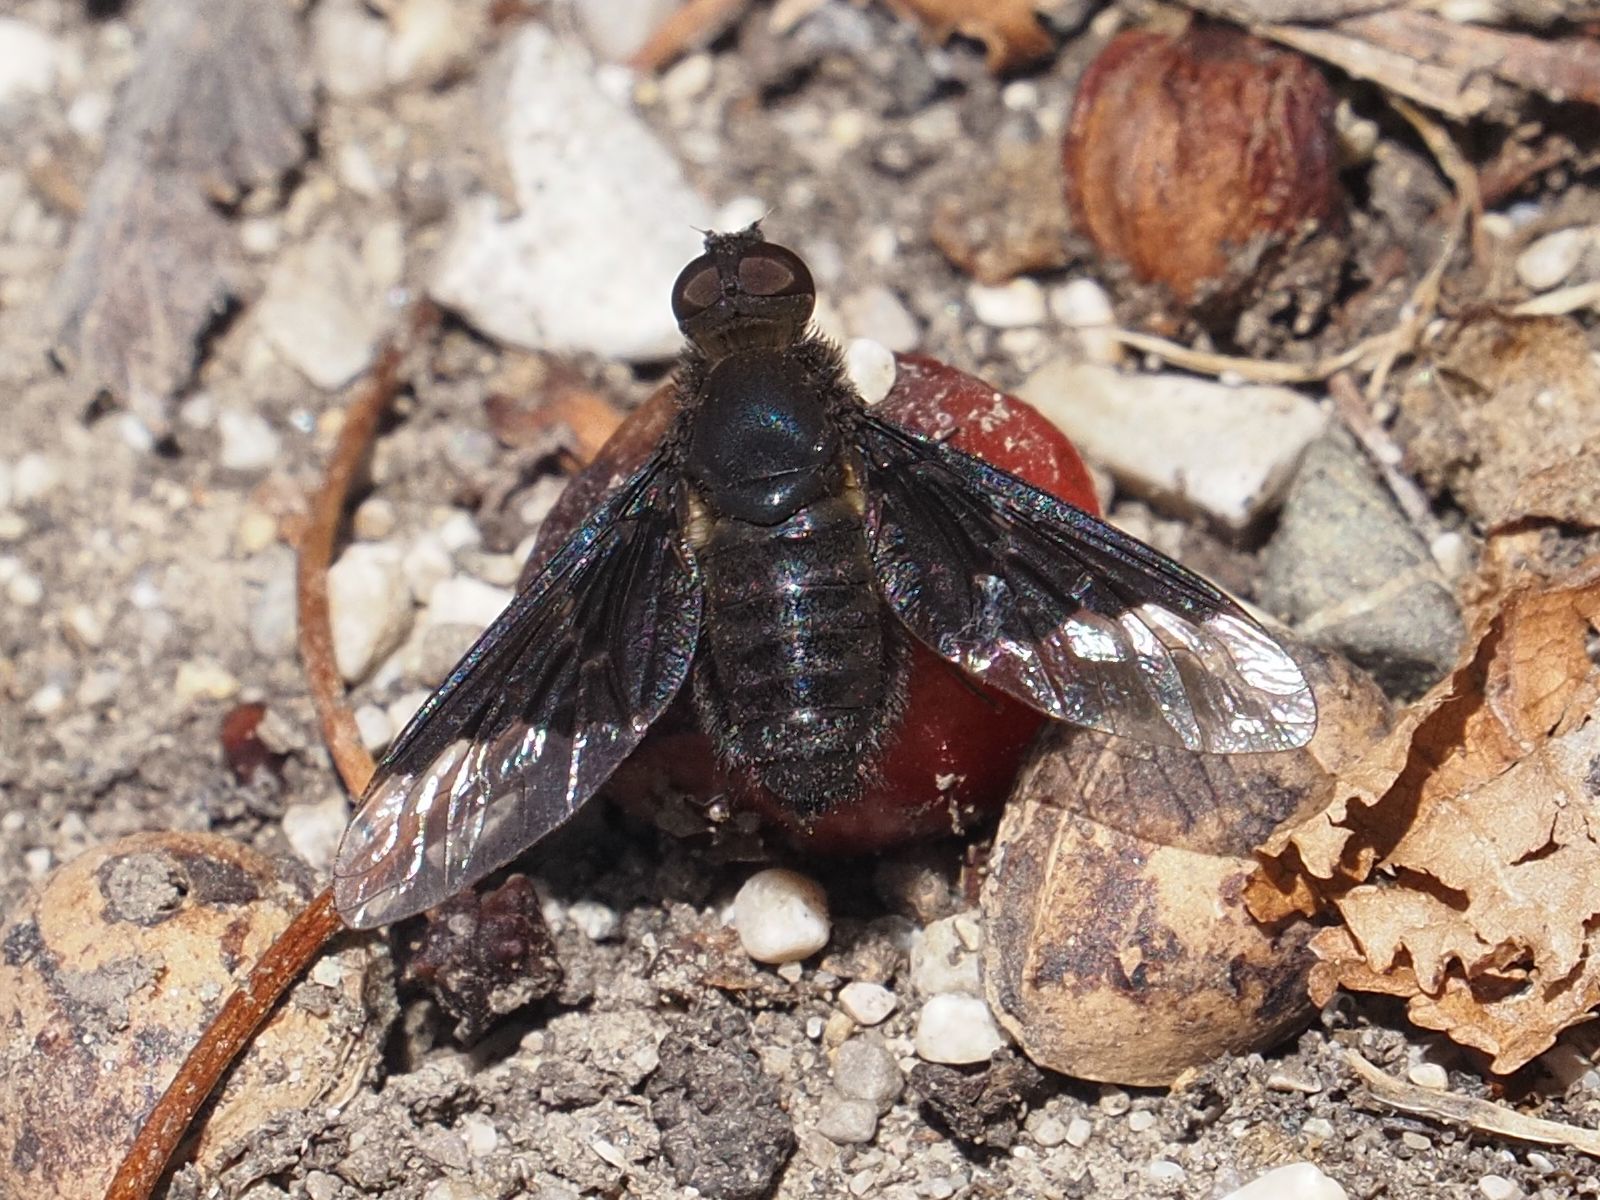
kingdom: Animalia
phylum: Arthropoda
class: Insecta
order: Diptera
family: Bombyliidae
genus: Hemipenthes
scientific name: Hemipenthes morio
